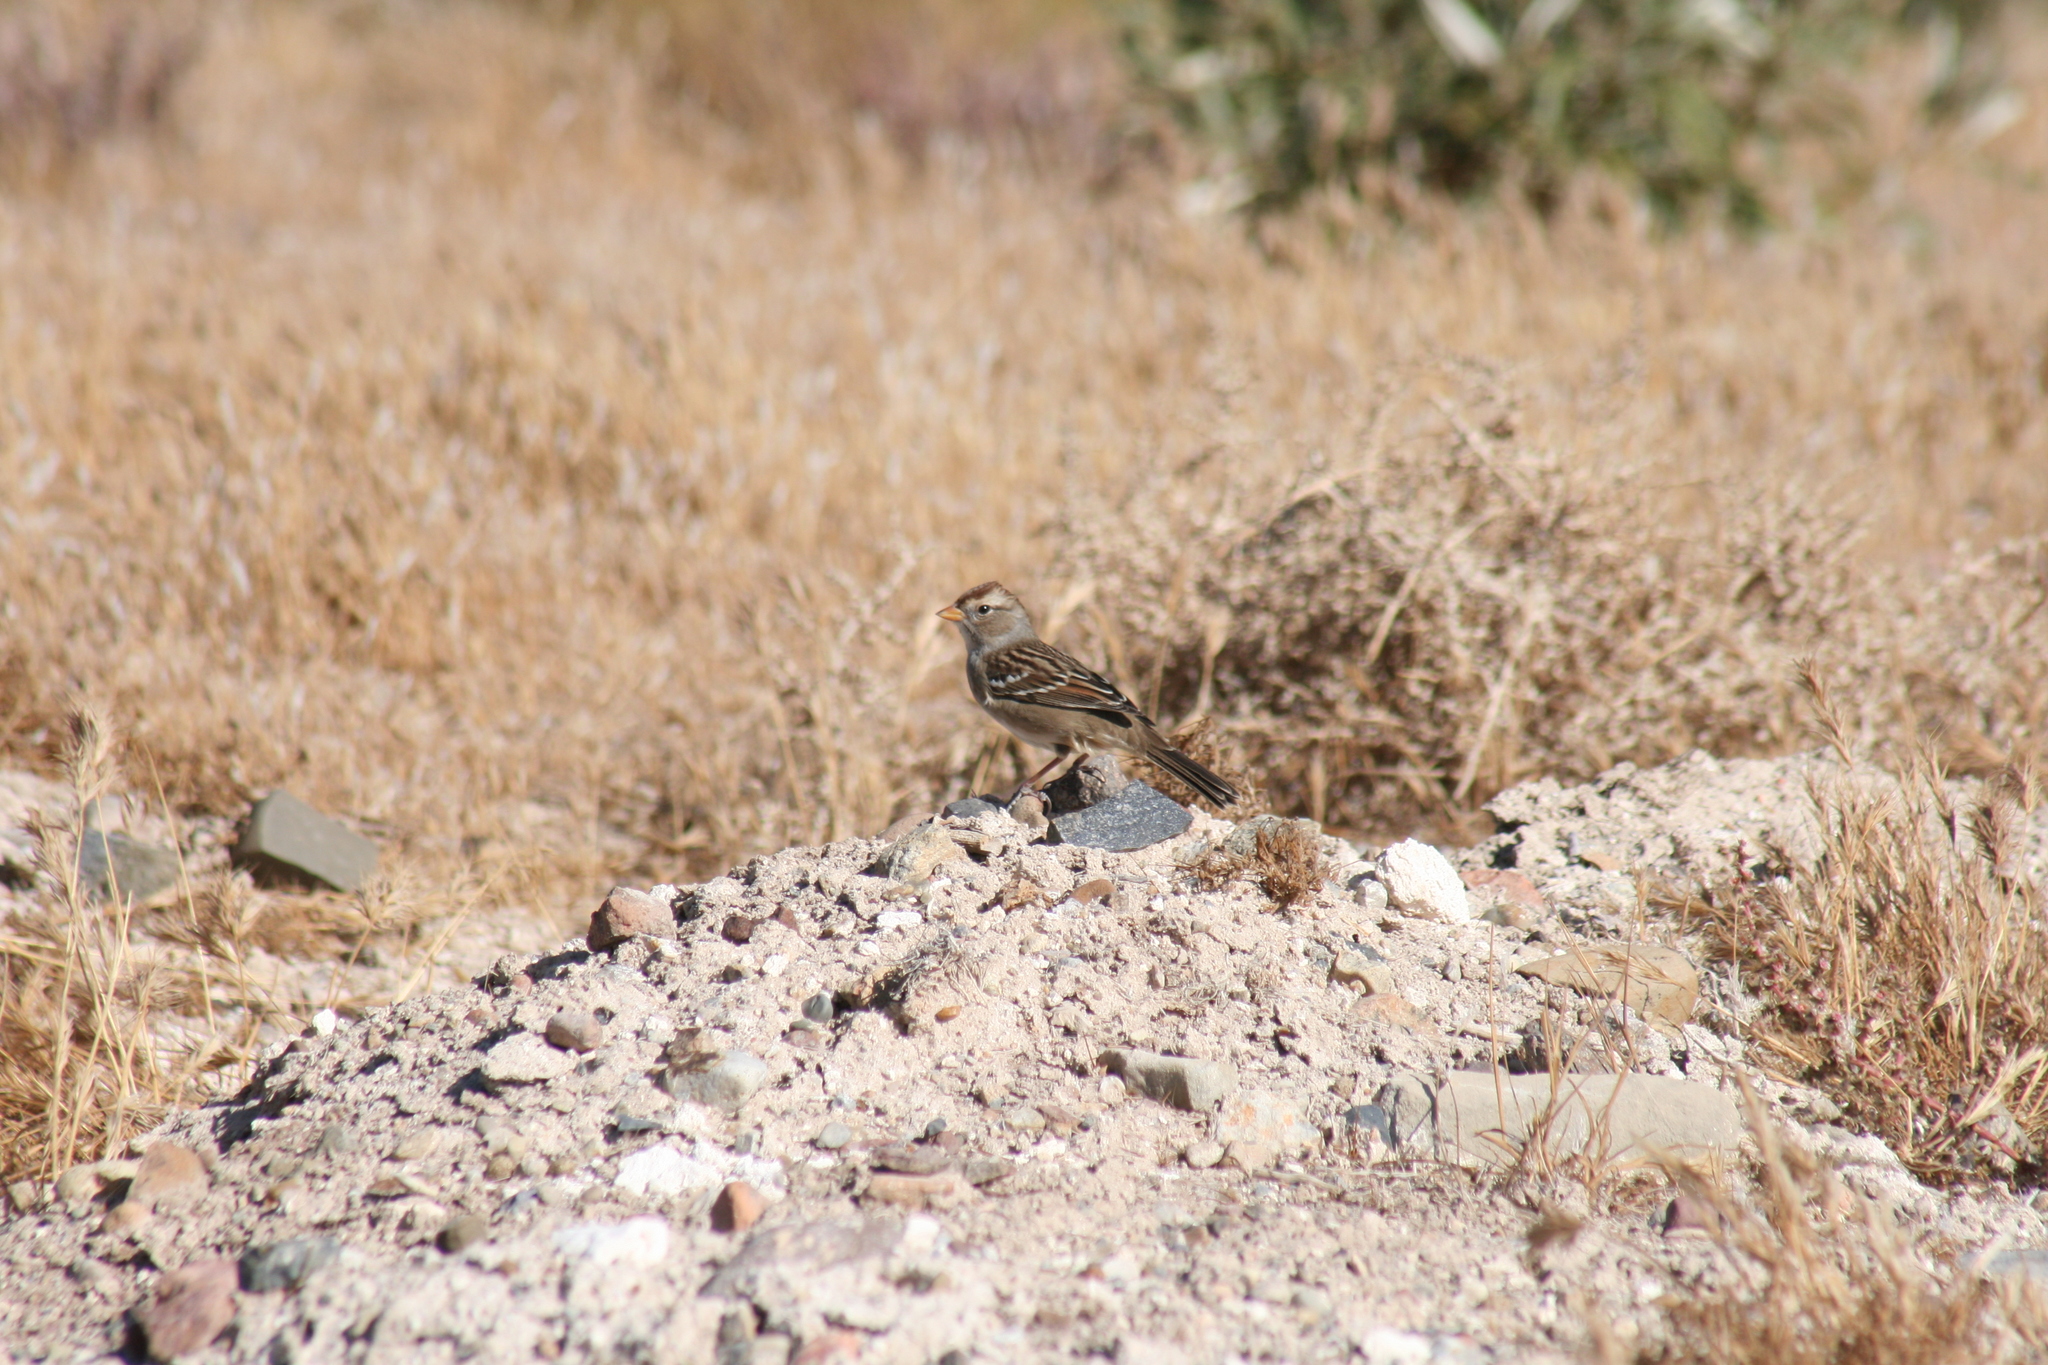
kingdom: Animalia
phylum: Chordata
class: Aves
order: Passeriformes
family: Passerellidae
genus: Zonotrichia
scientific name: Zonotrichia leucophrys
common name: White-crowned sparrow
